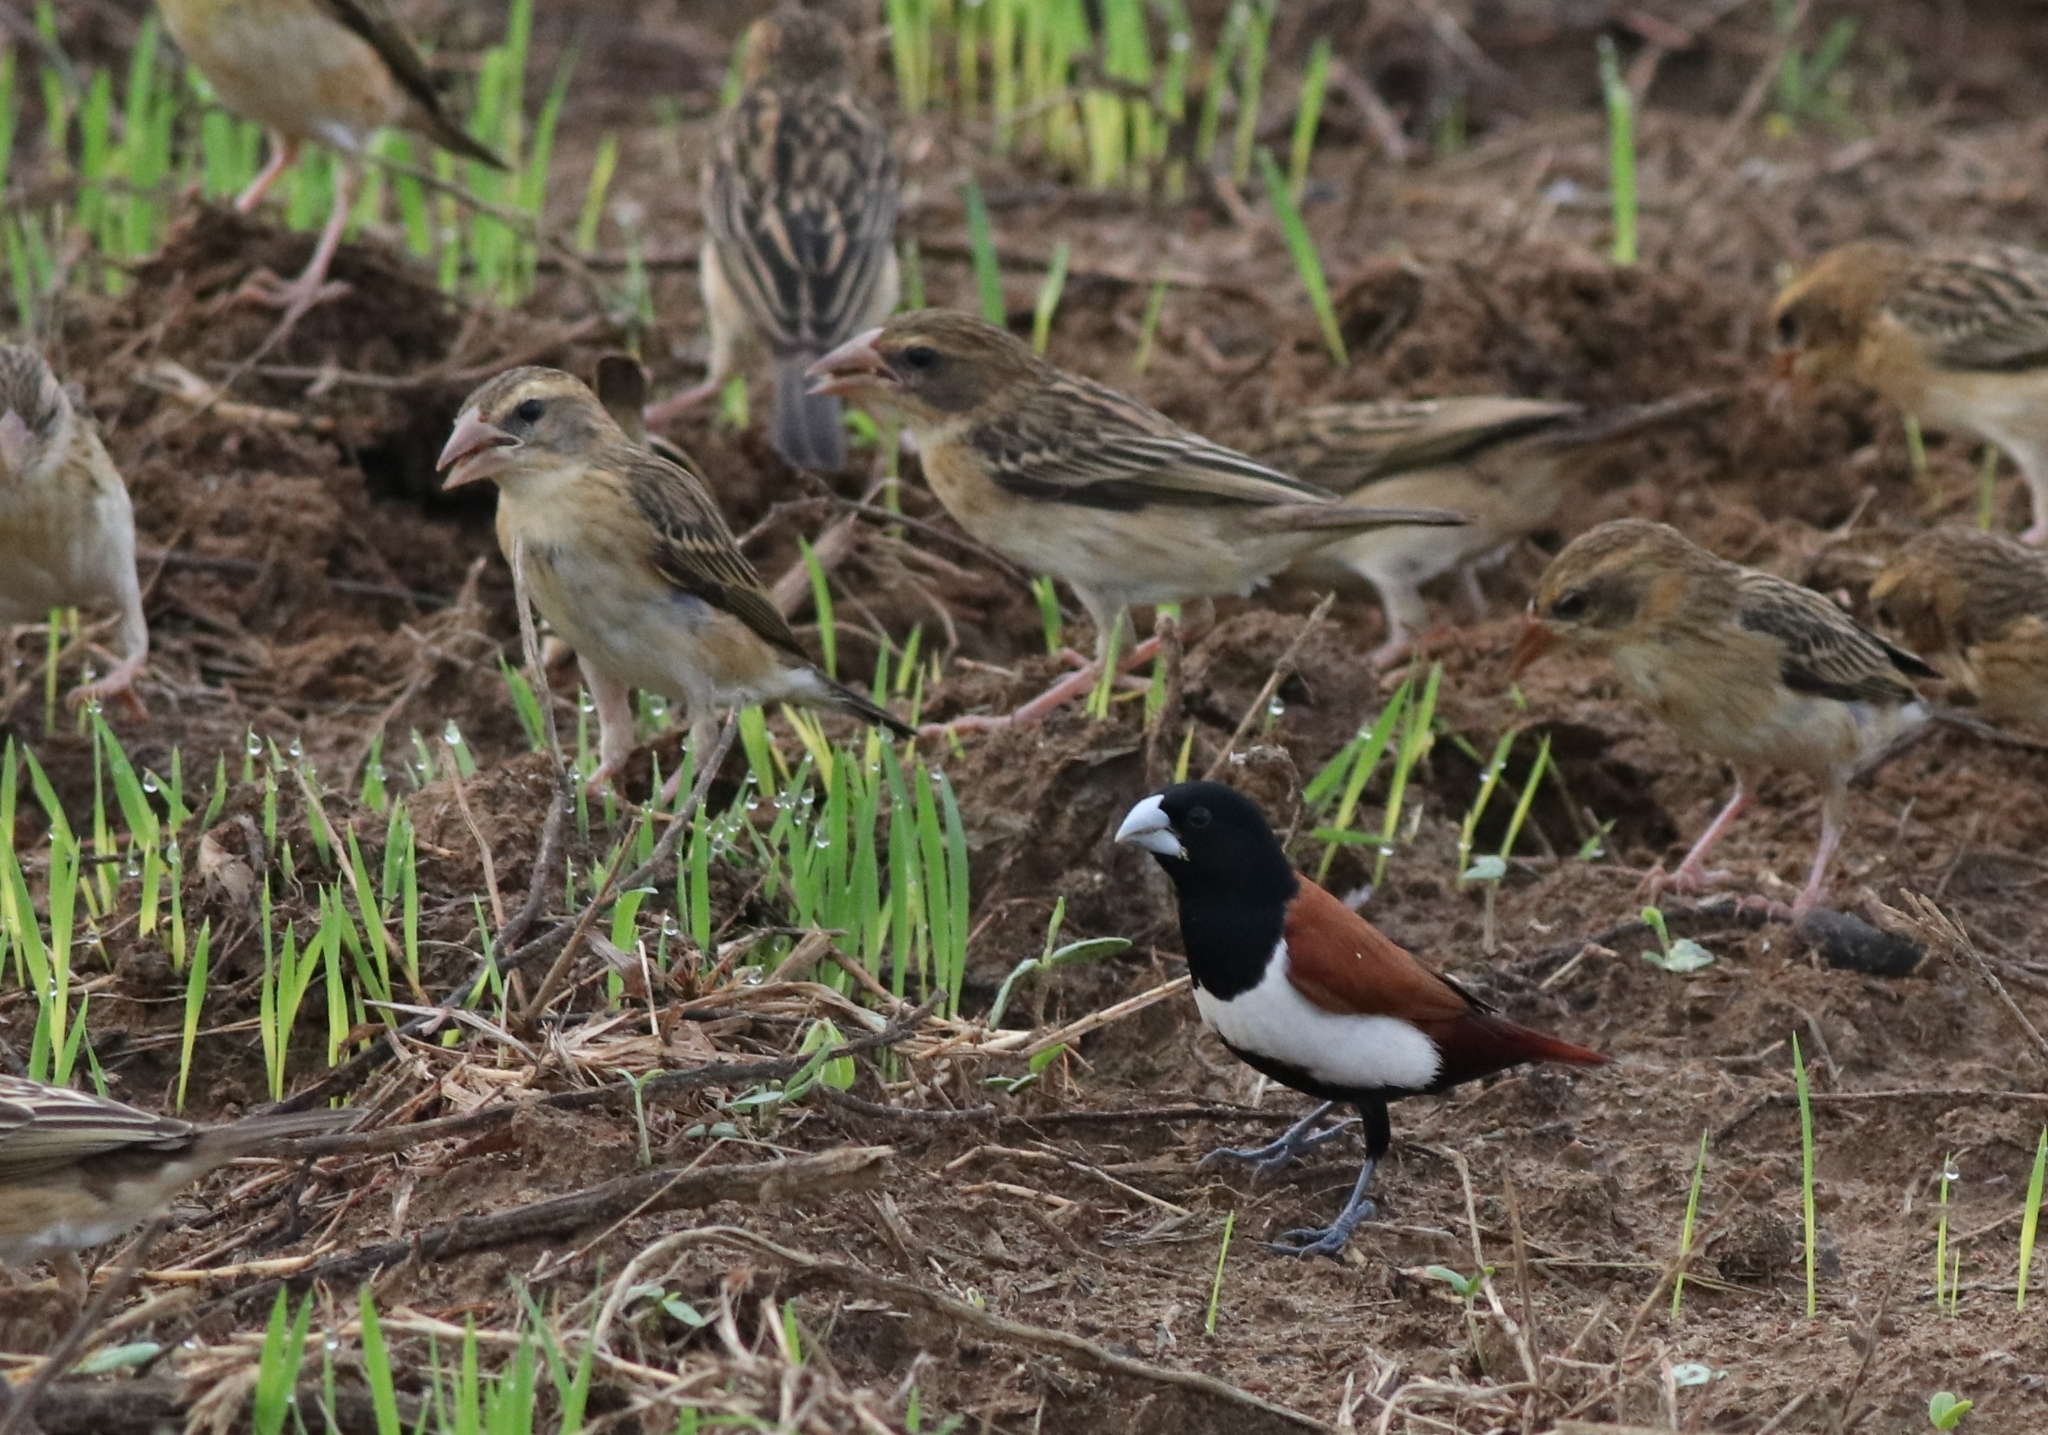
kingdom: Animalia
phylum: Chordata
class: Aves
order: Passeriformes
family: Estrildidae
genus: Lonchura
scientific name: Lonchura malacca
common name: Tricolored munia
